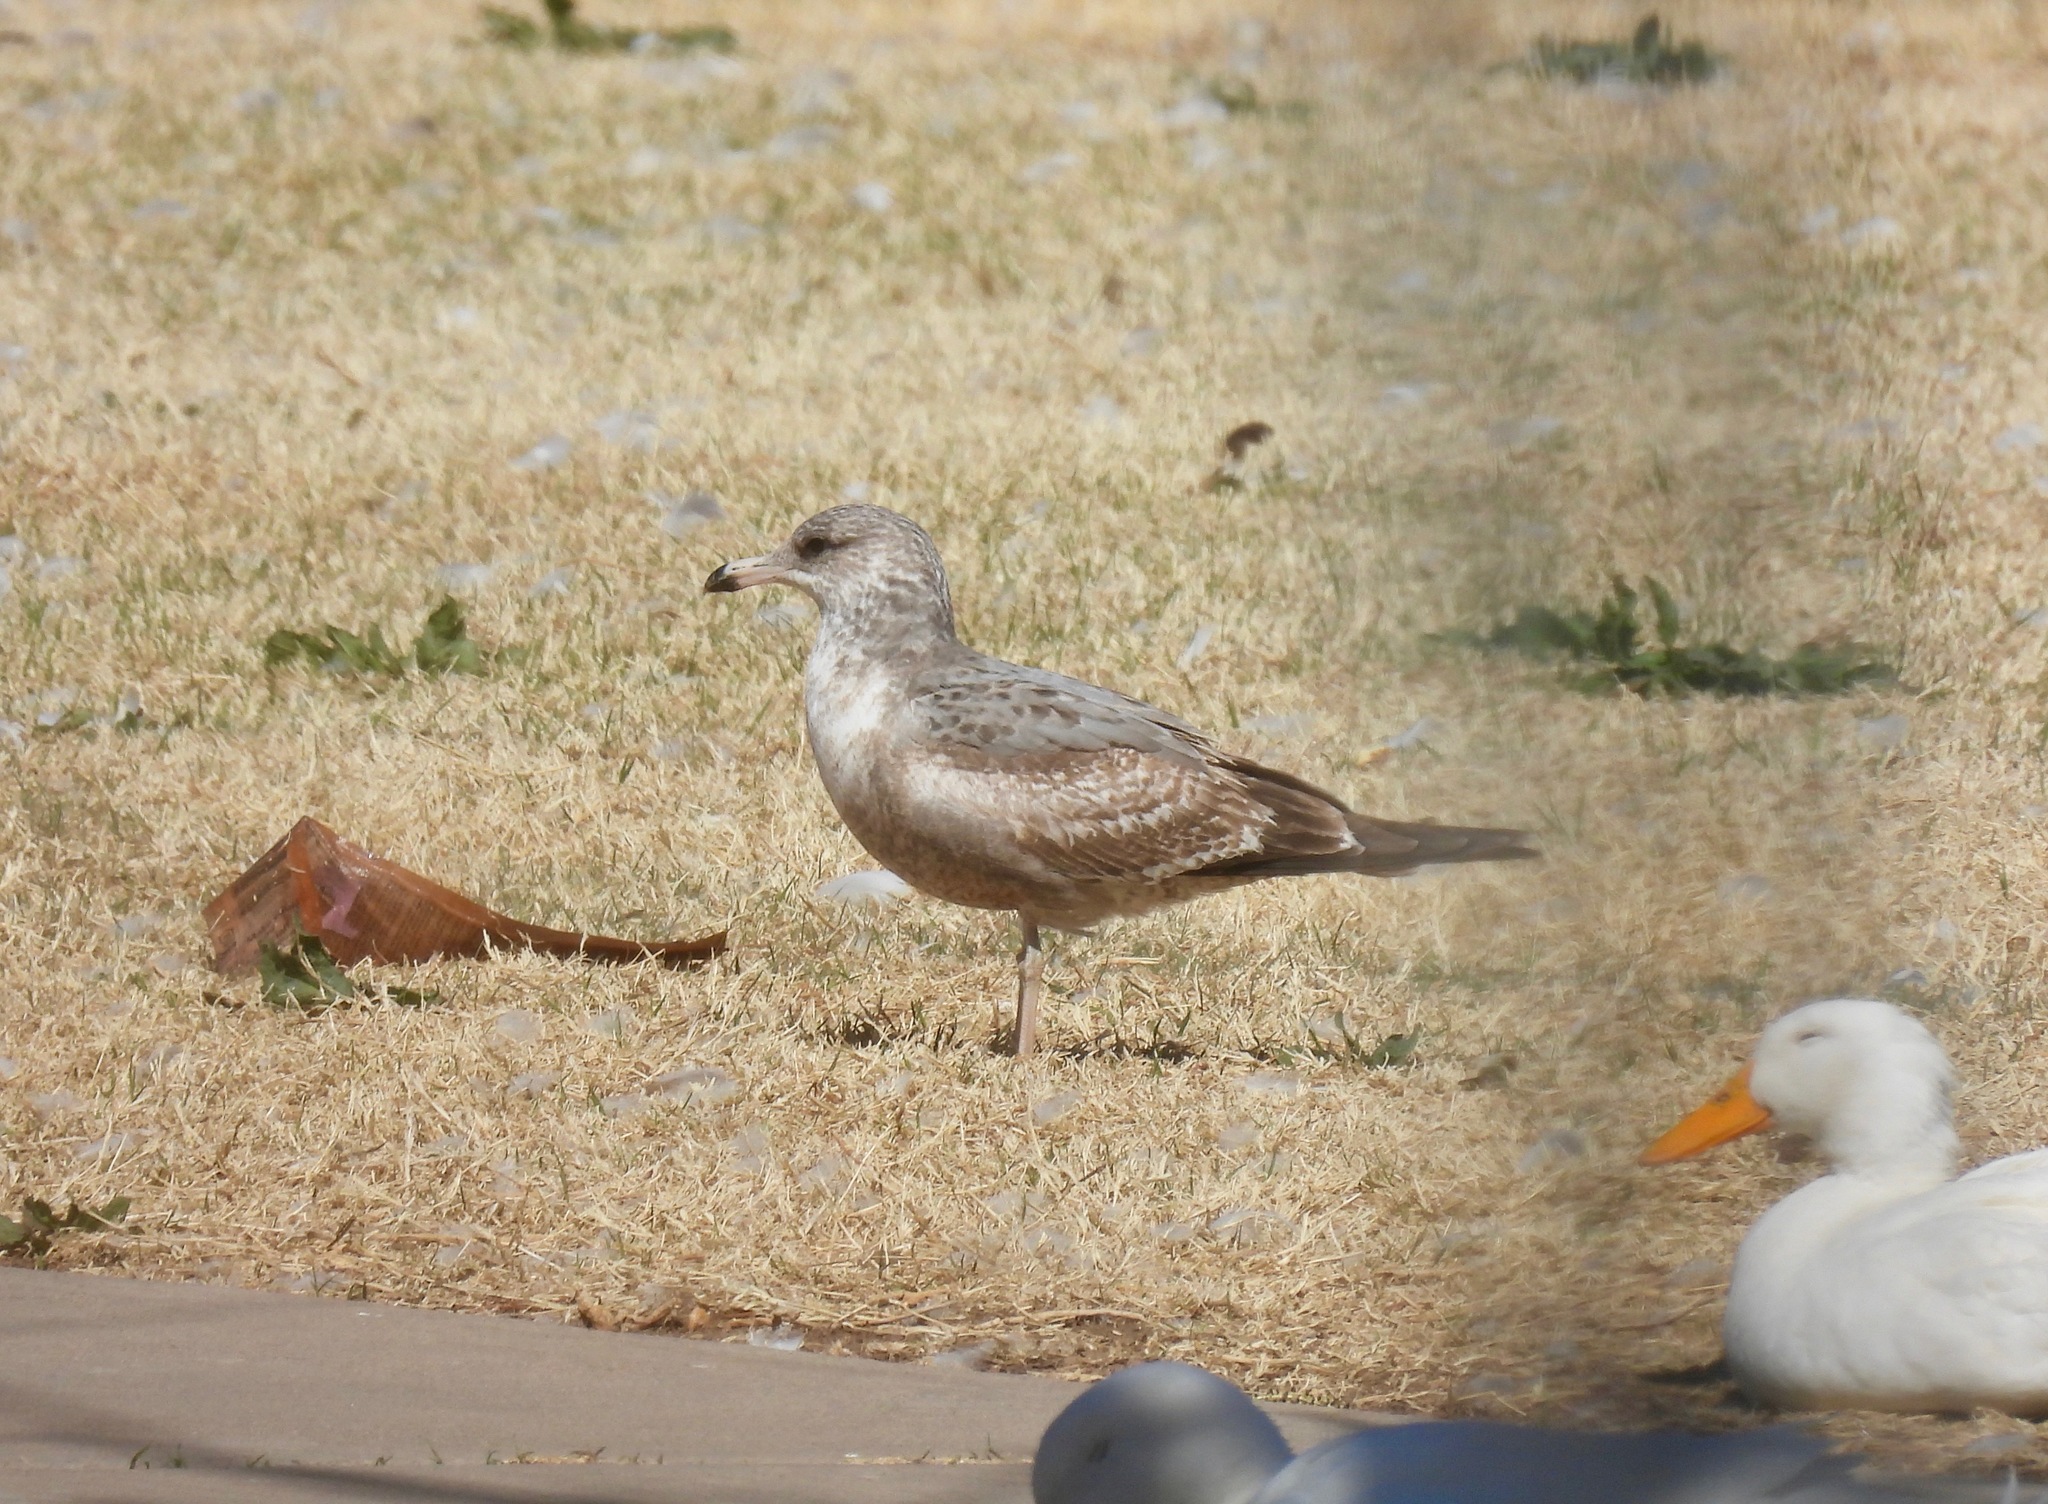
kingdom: Animalia
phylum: Chordata
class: Aves
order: Charadriiformes
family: Laridae
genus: Larus
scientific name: Larus californicus
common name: California gull
